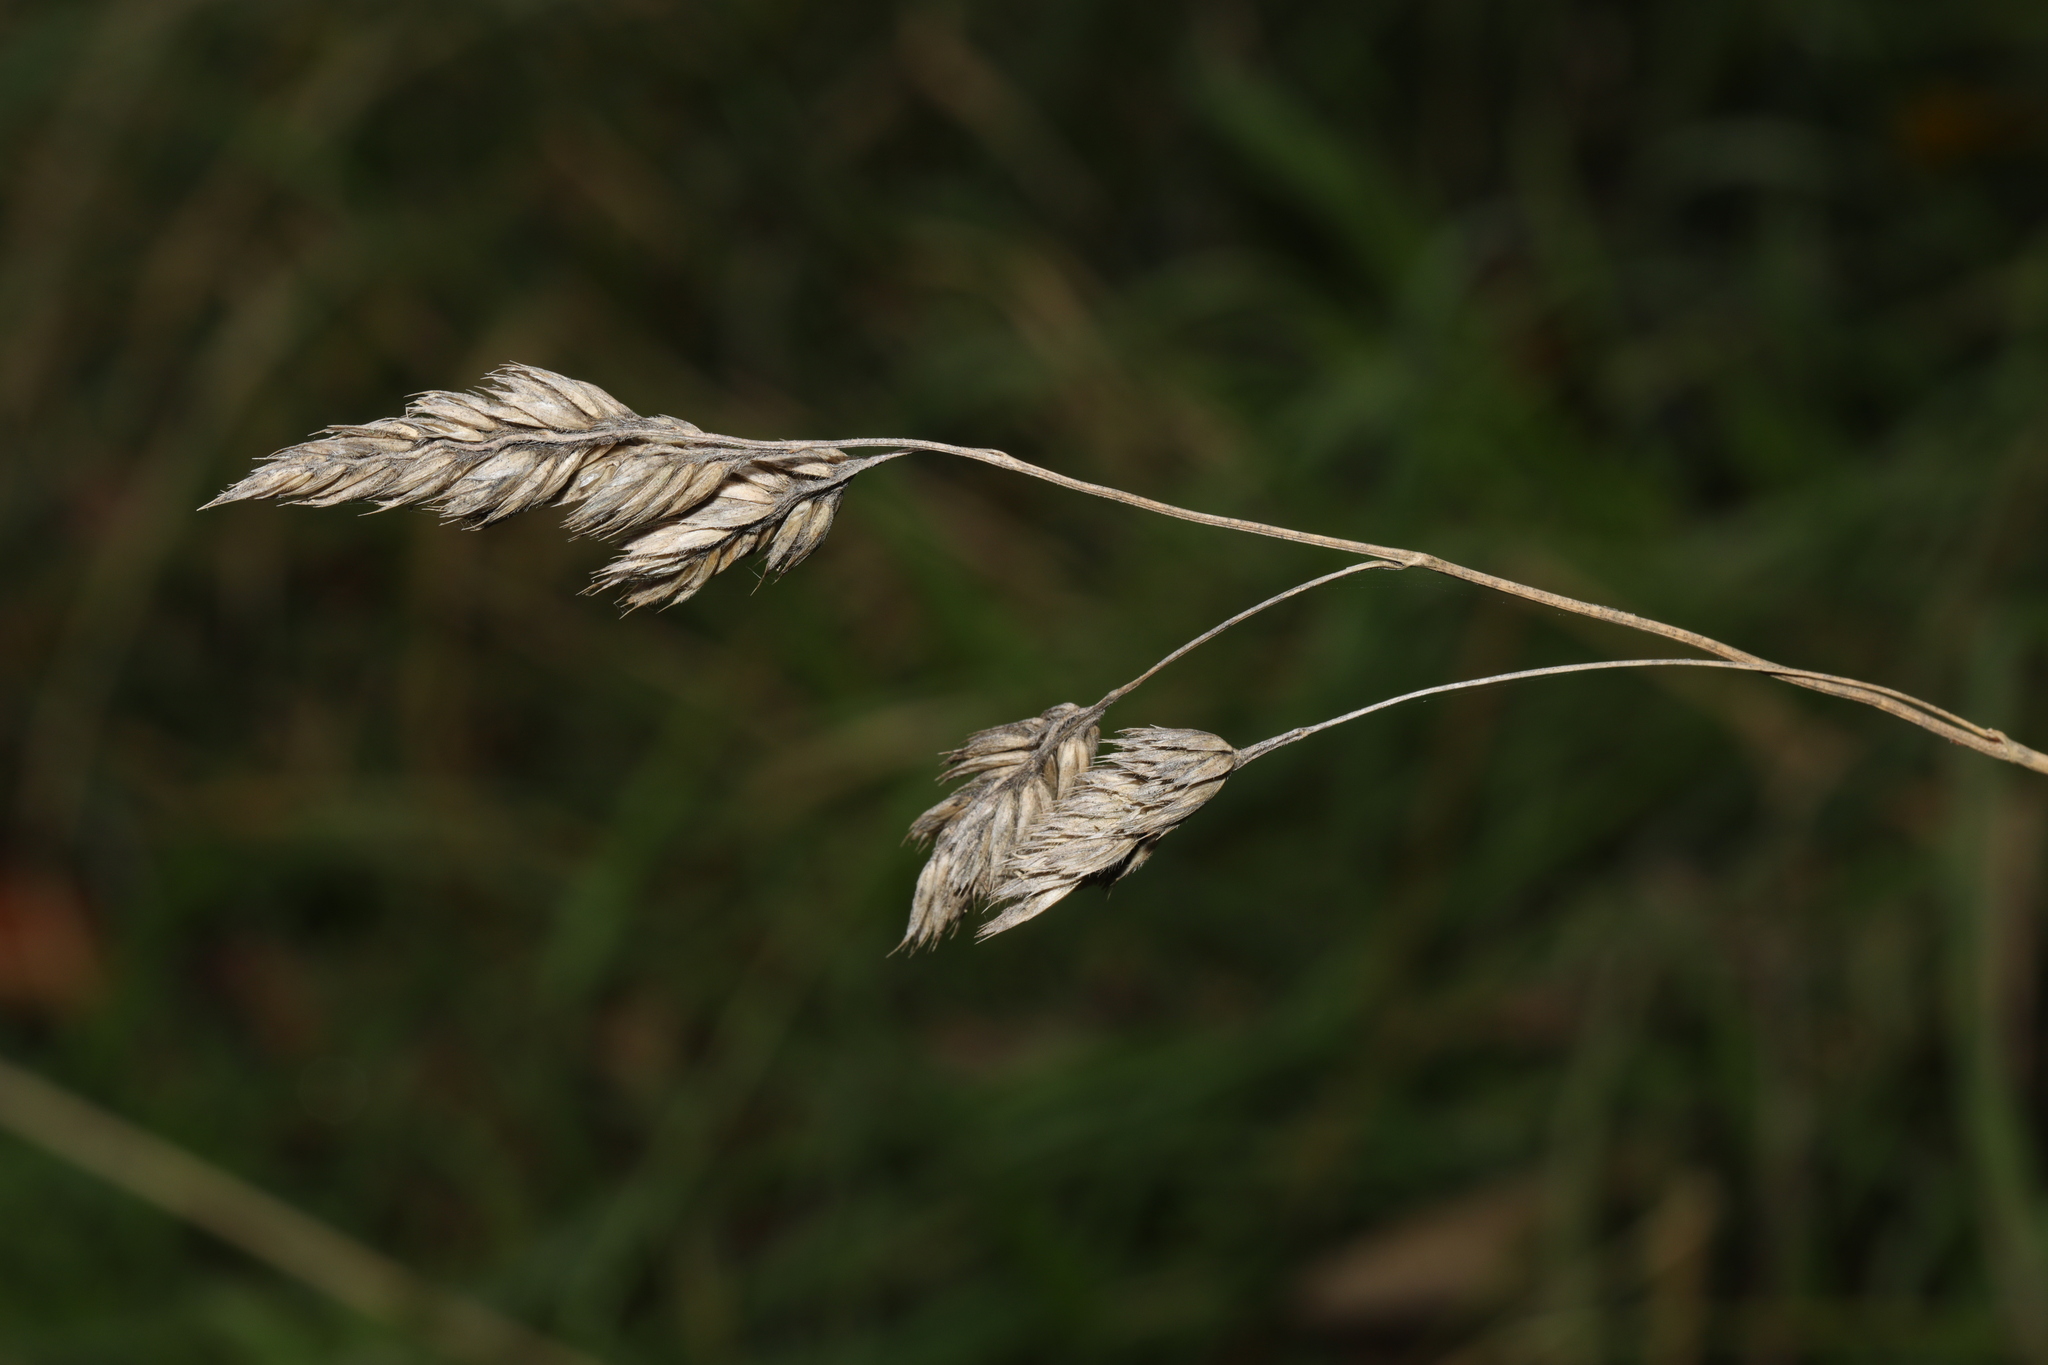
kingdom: Plantae
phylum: Tracheophyta
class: Liliopsida
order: Poales
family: Poaceae
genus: Dactylis
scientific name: Dactylis glomerata
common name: Orchardgrass
